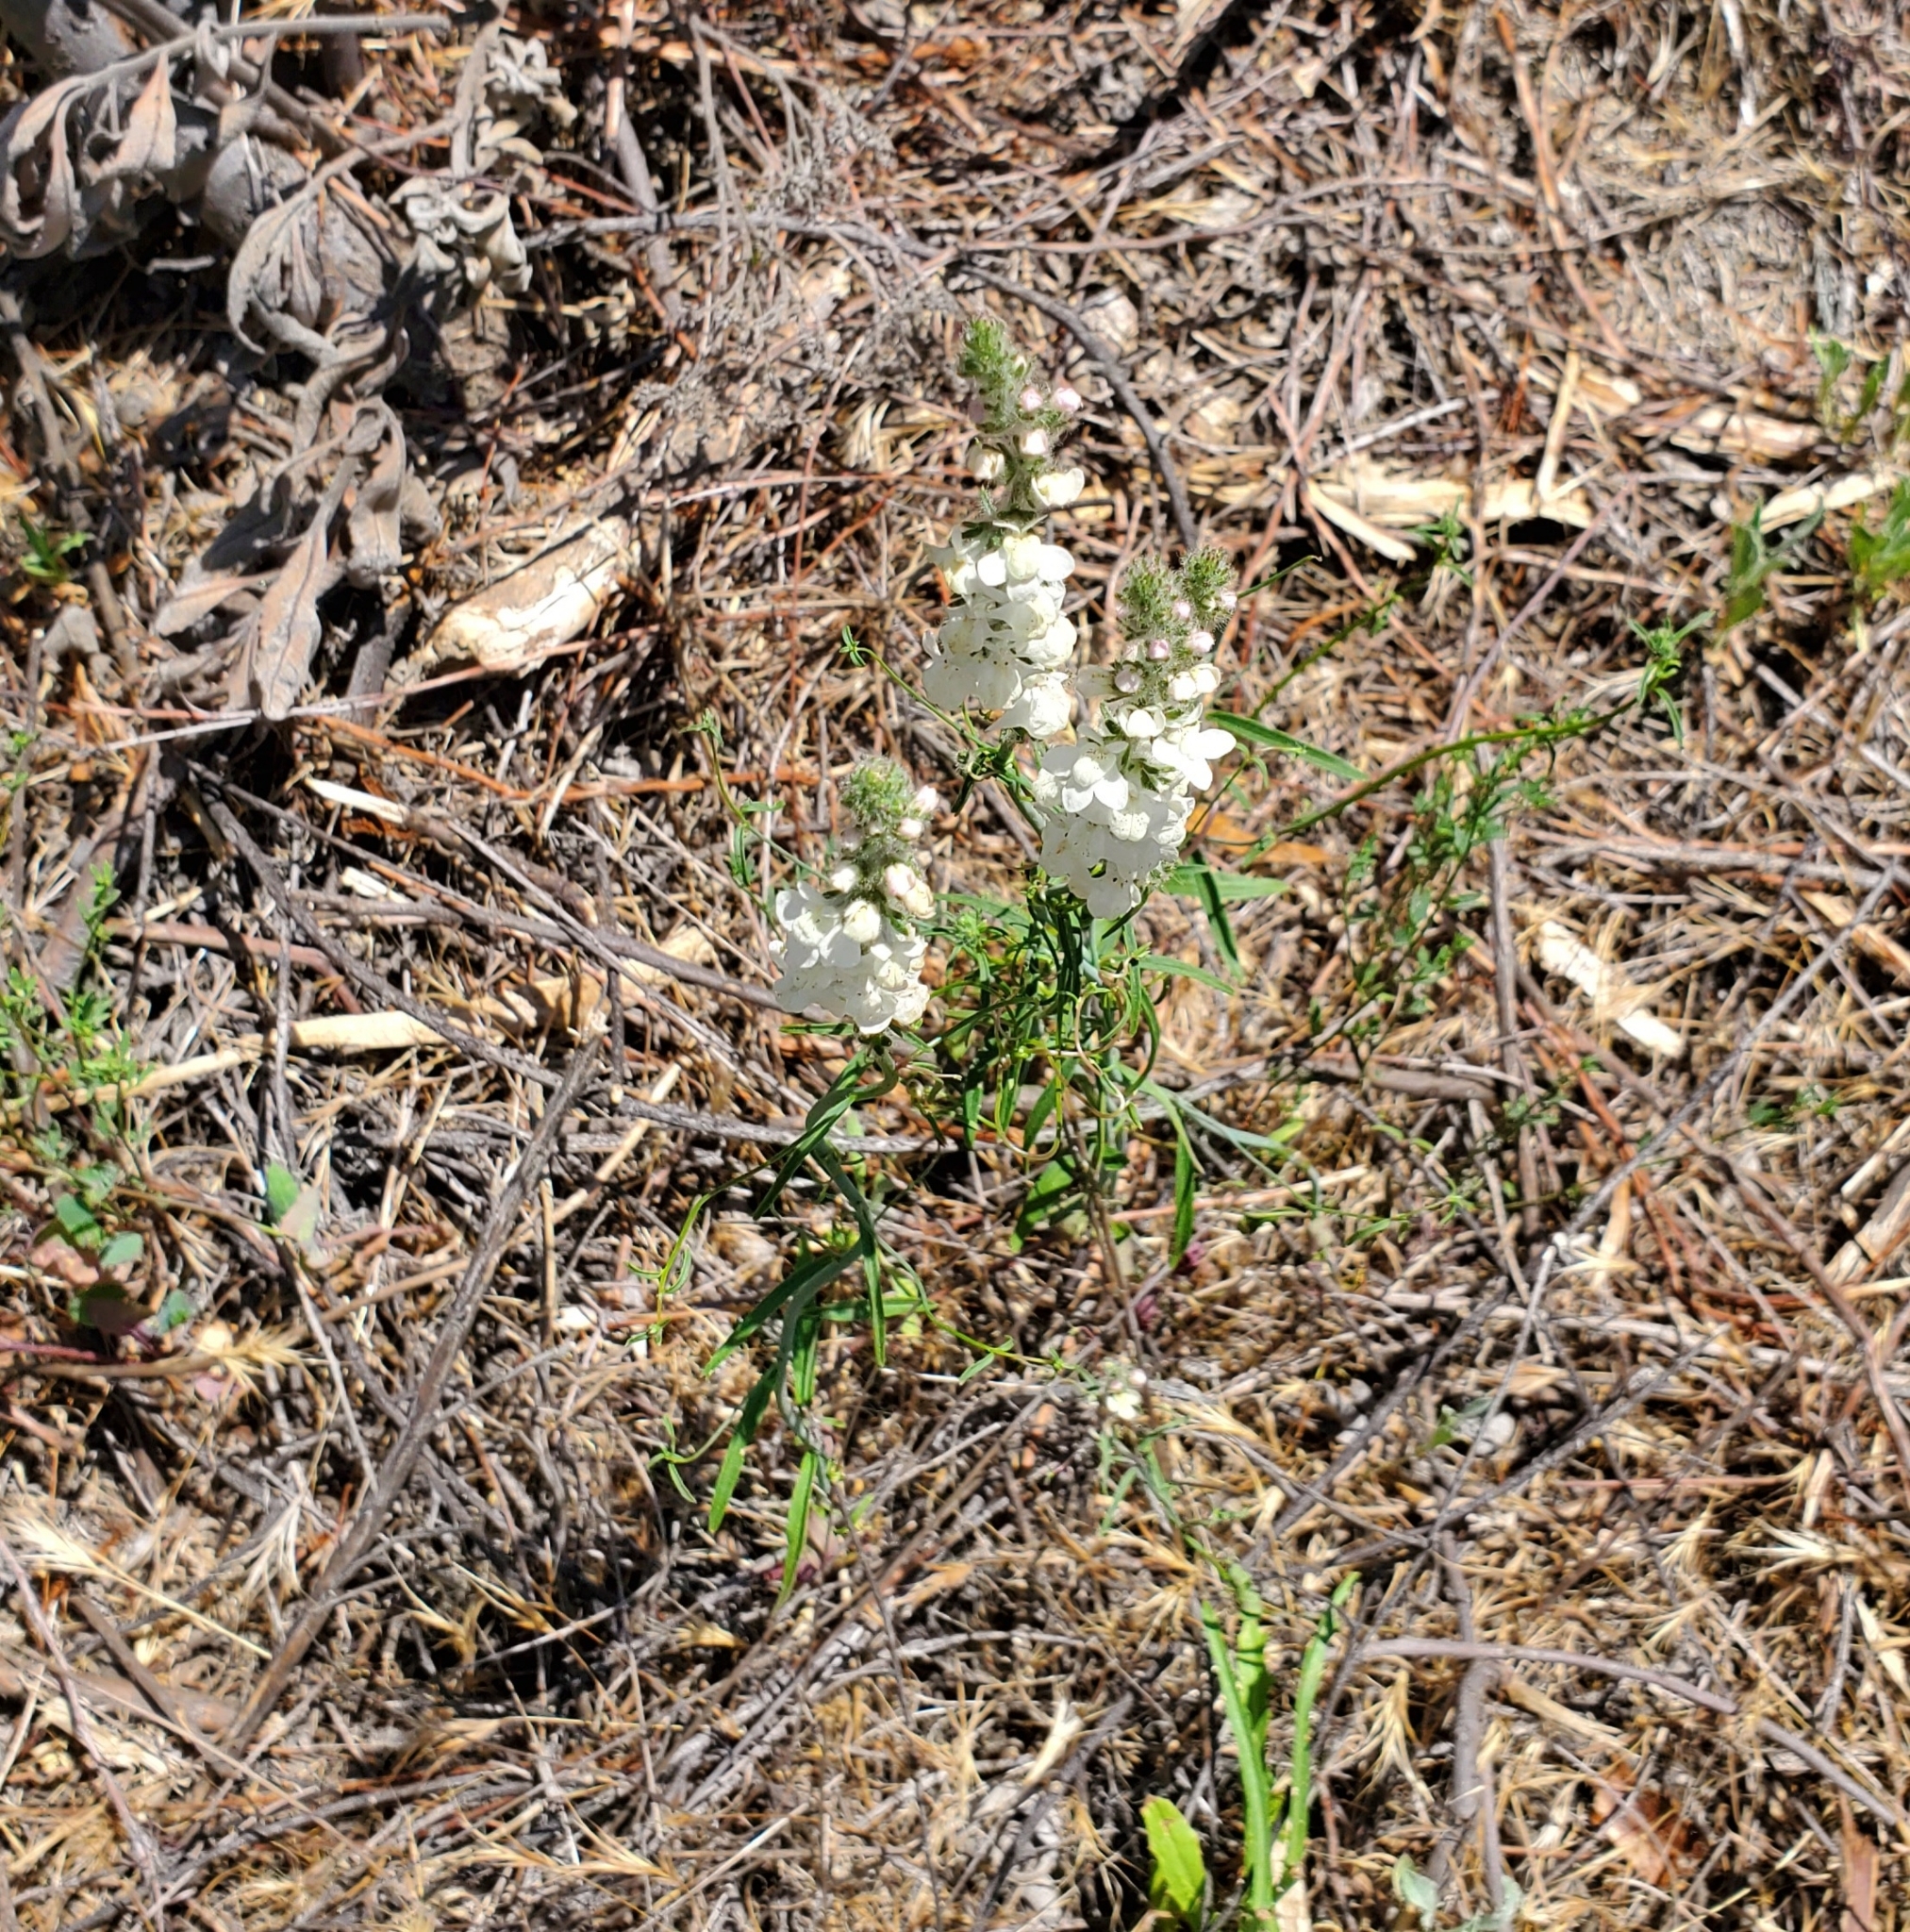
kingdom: Plantae
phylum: Tracheophyta
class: Magnoliopsida
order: Lamiales
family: Plantaginaceae
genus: Sairocarpus
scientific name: Sairocarpus coulterianus
